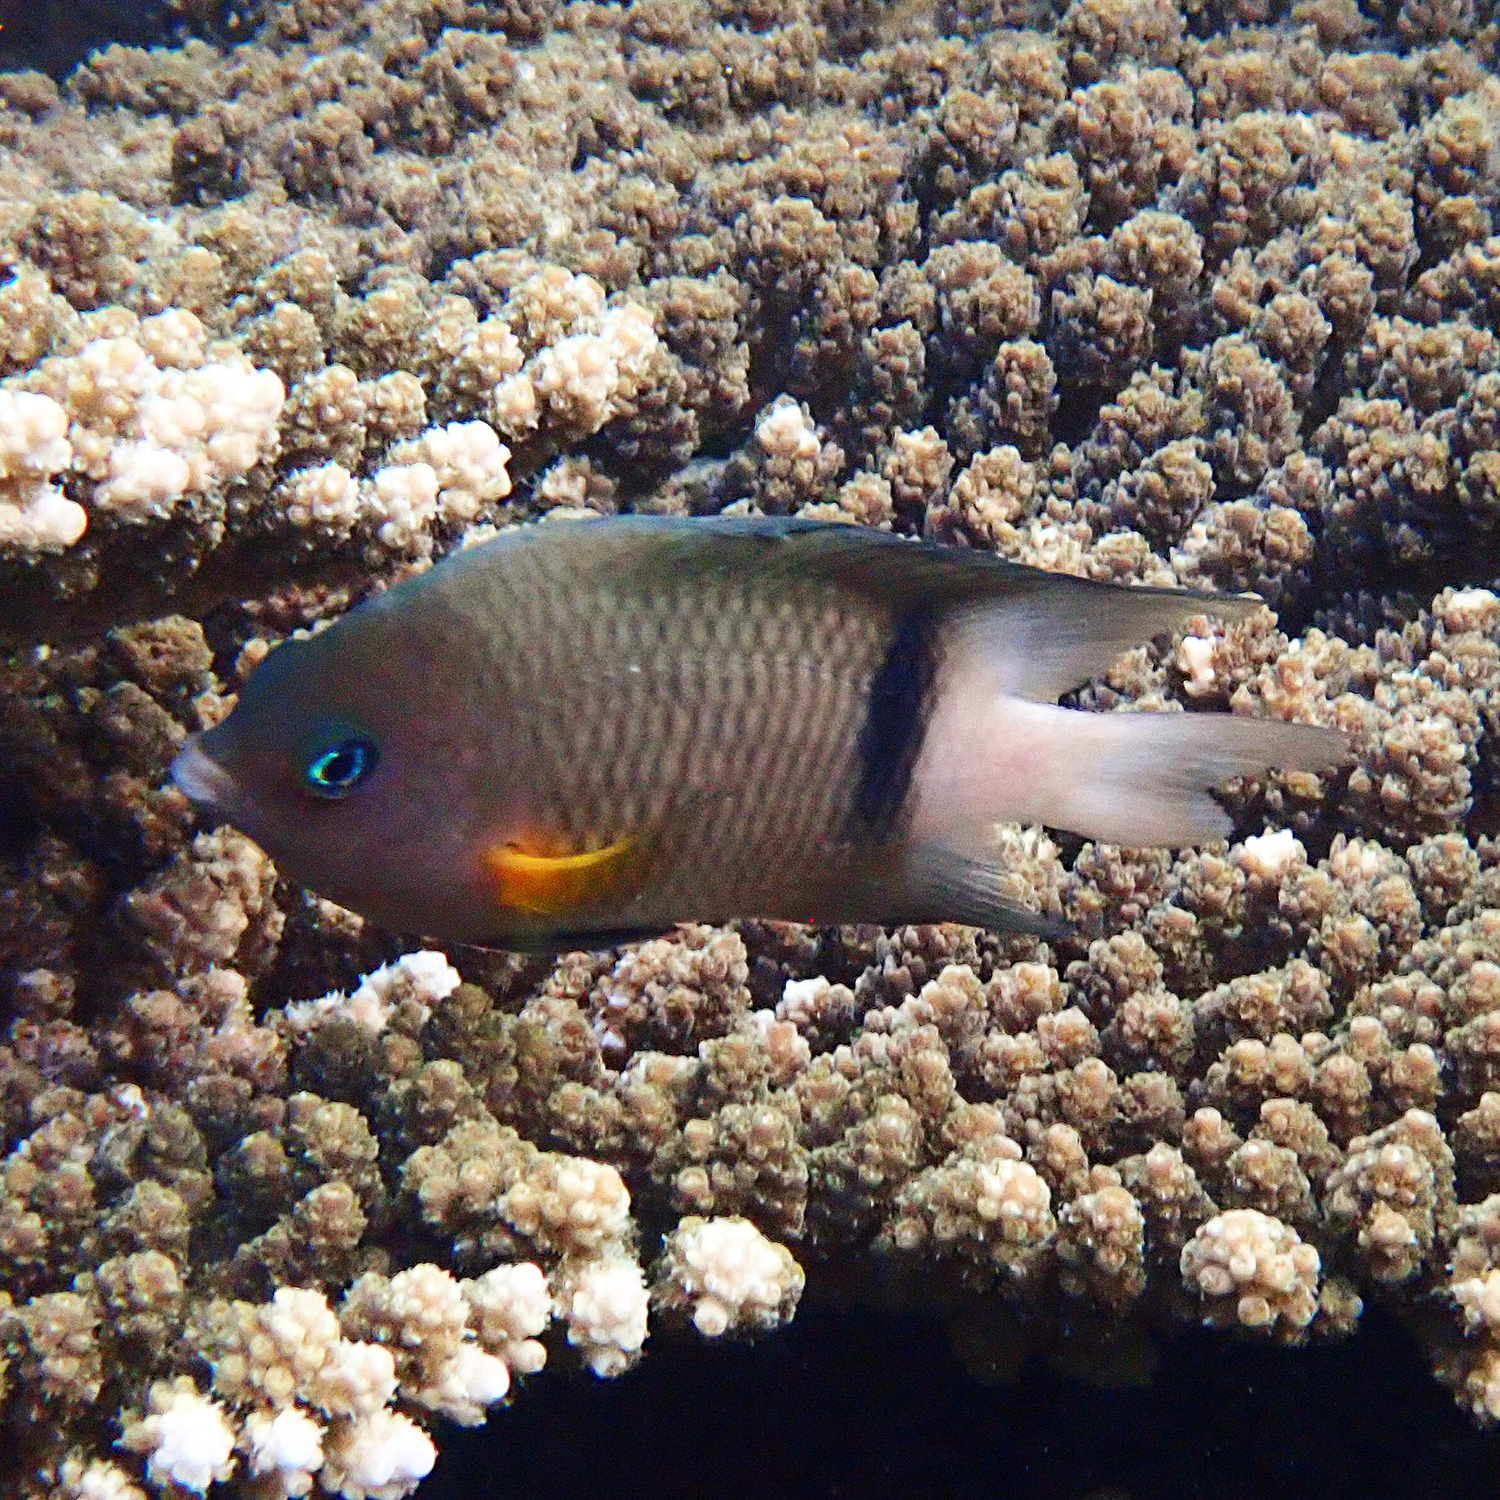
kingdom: Animalia
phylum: Chordata
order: Perciformes
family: Pomacentridae
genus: Plectroglyphidodon
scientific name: Plectroglyphidodon dickii
